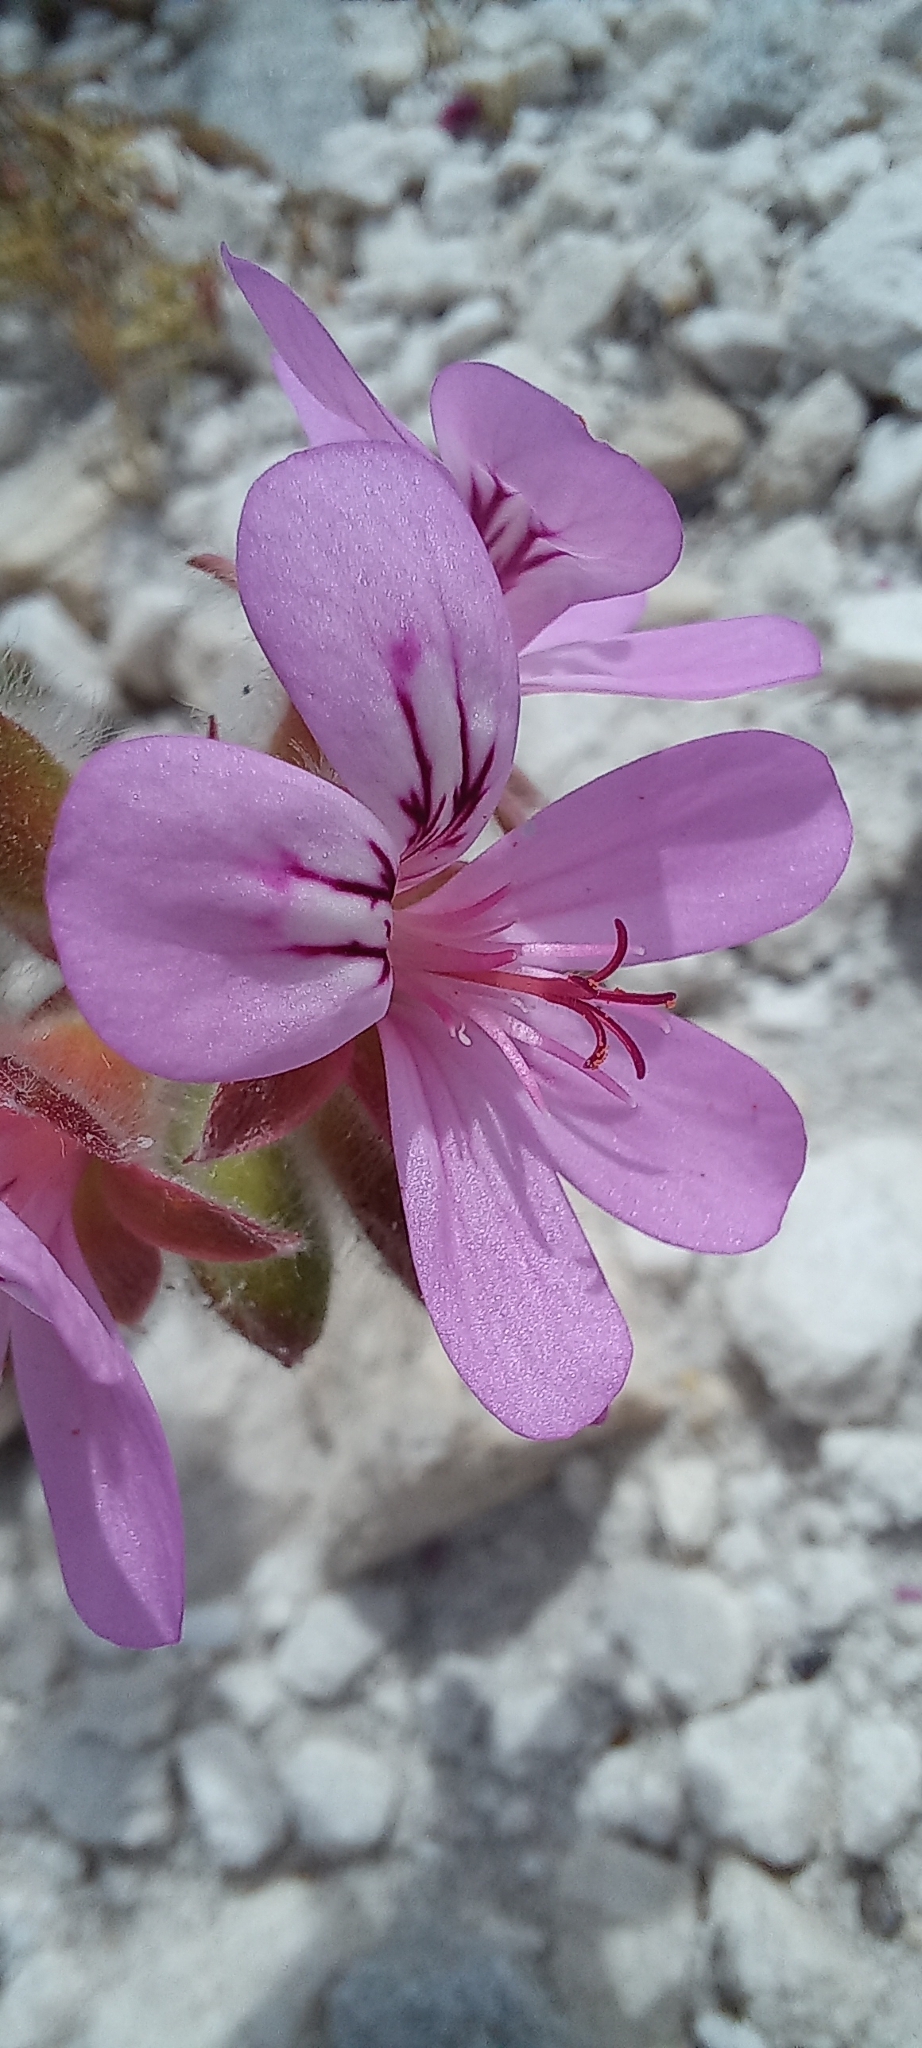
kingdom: Plantae
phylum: Tracheophyta
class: Magnoliopsida
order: Geraniales
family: Geraniaceae
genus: Pelargonium
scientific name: Pelargonium capitatum
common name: Rose scented geranium
